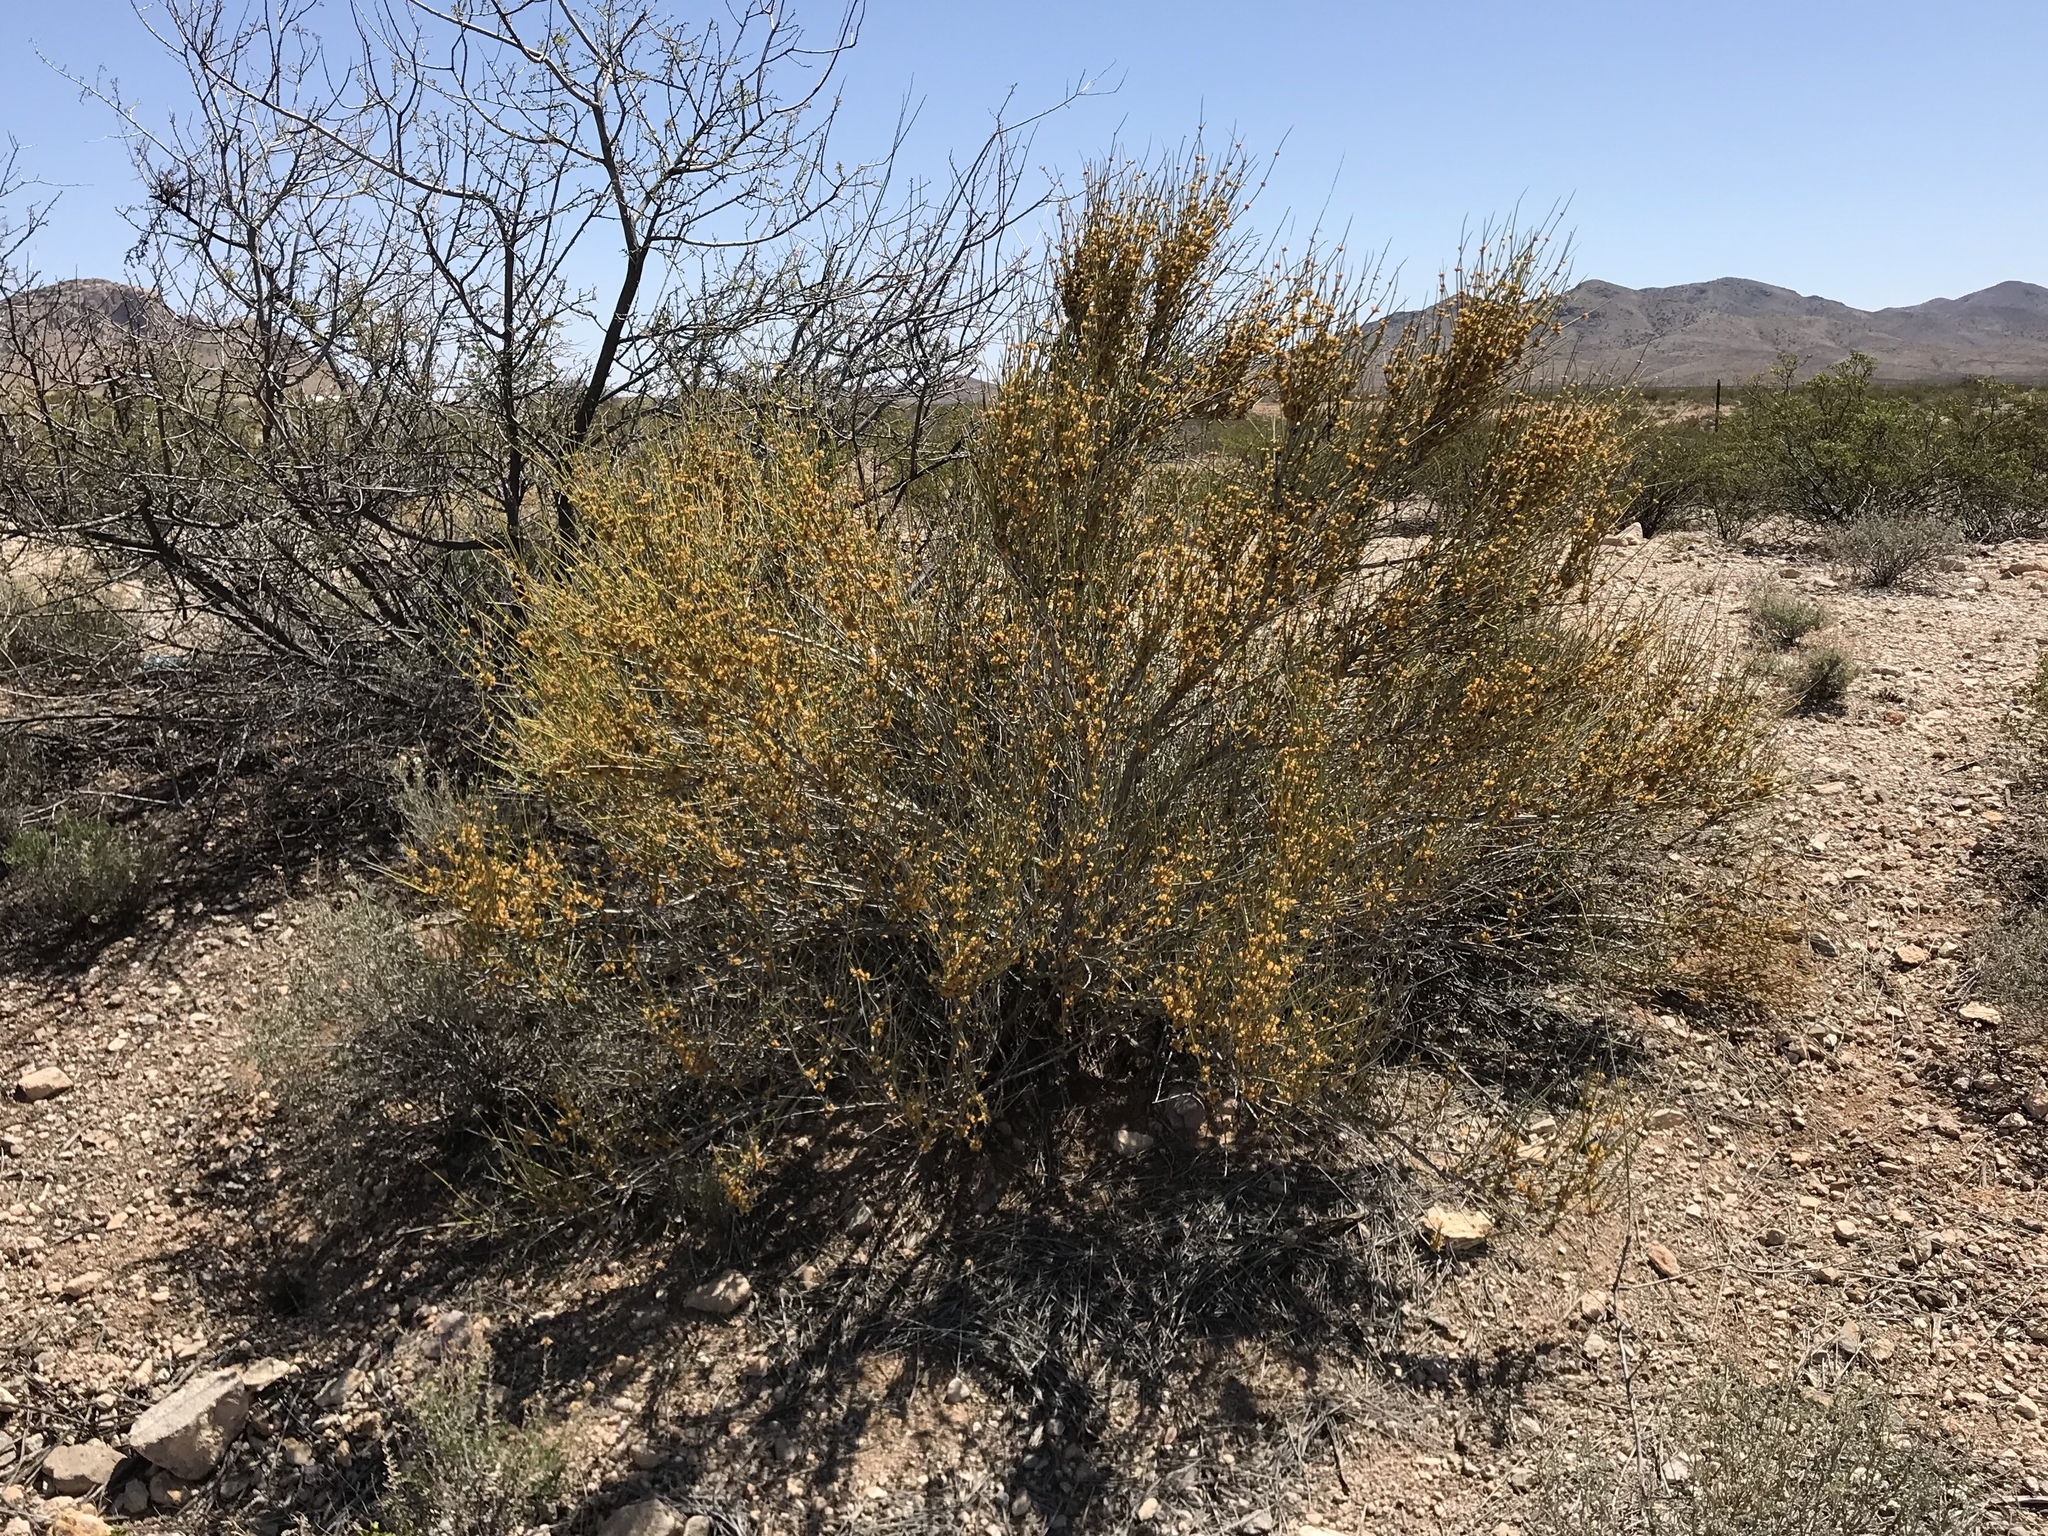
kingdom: Plantae
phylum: Tracheophyta
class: Gnetopsida
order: Ephedrales
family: Ephedraceae
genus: Ephedra
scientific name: Ephedra trifurca
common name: Mexican-tea
